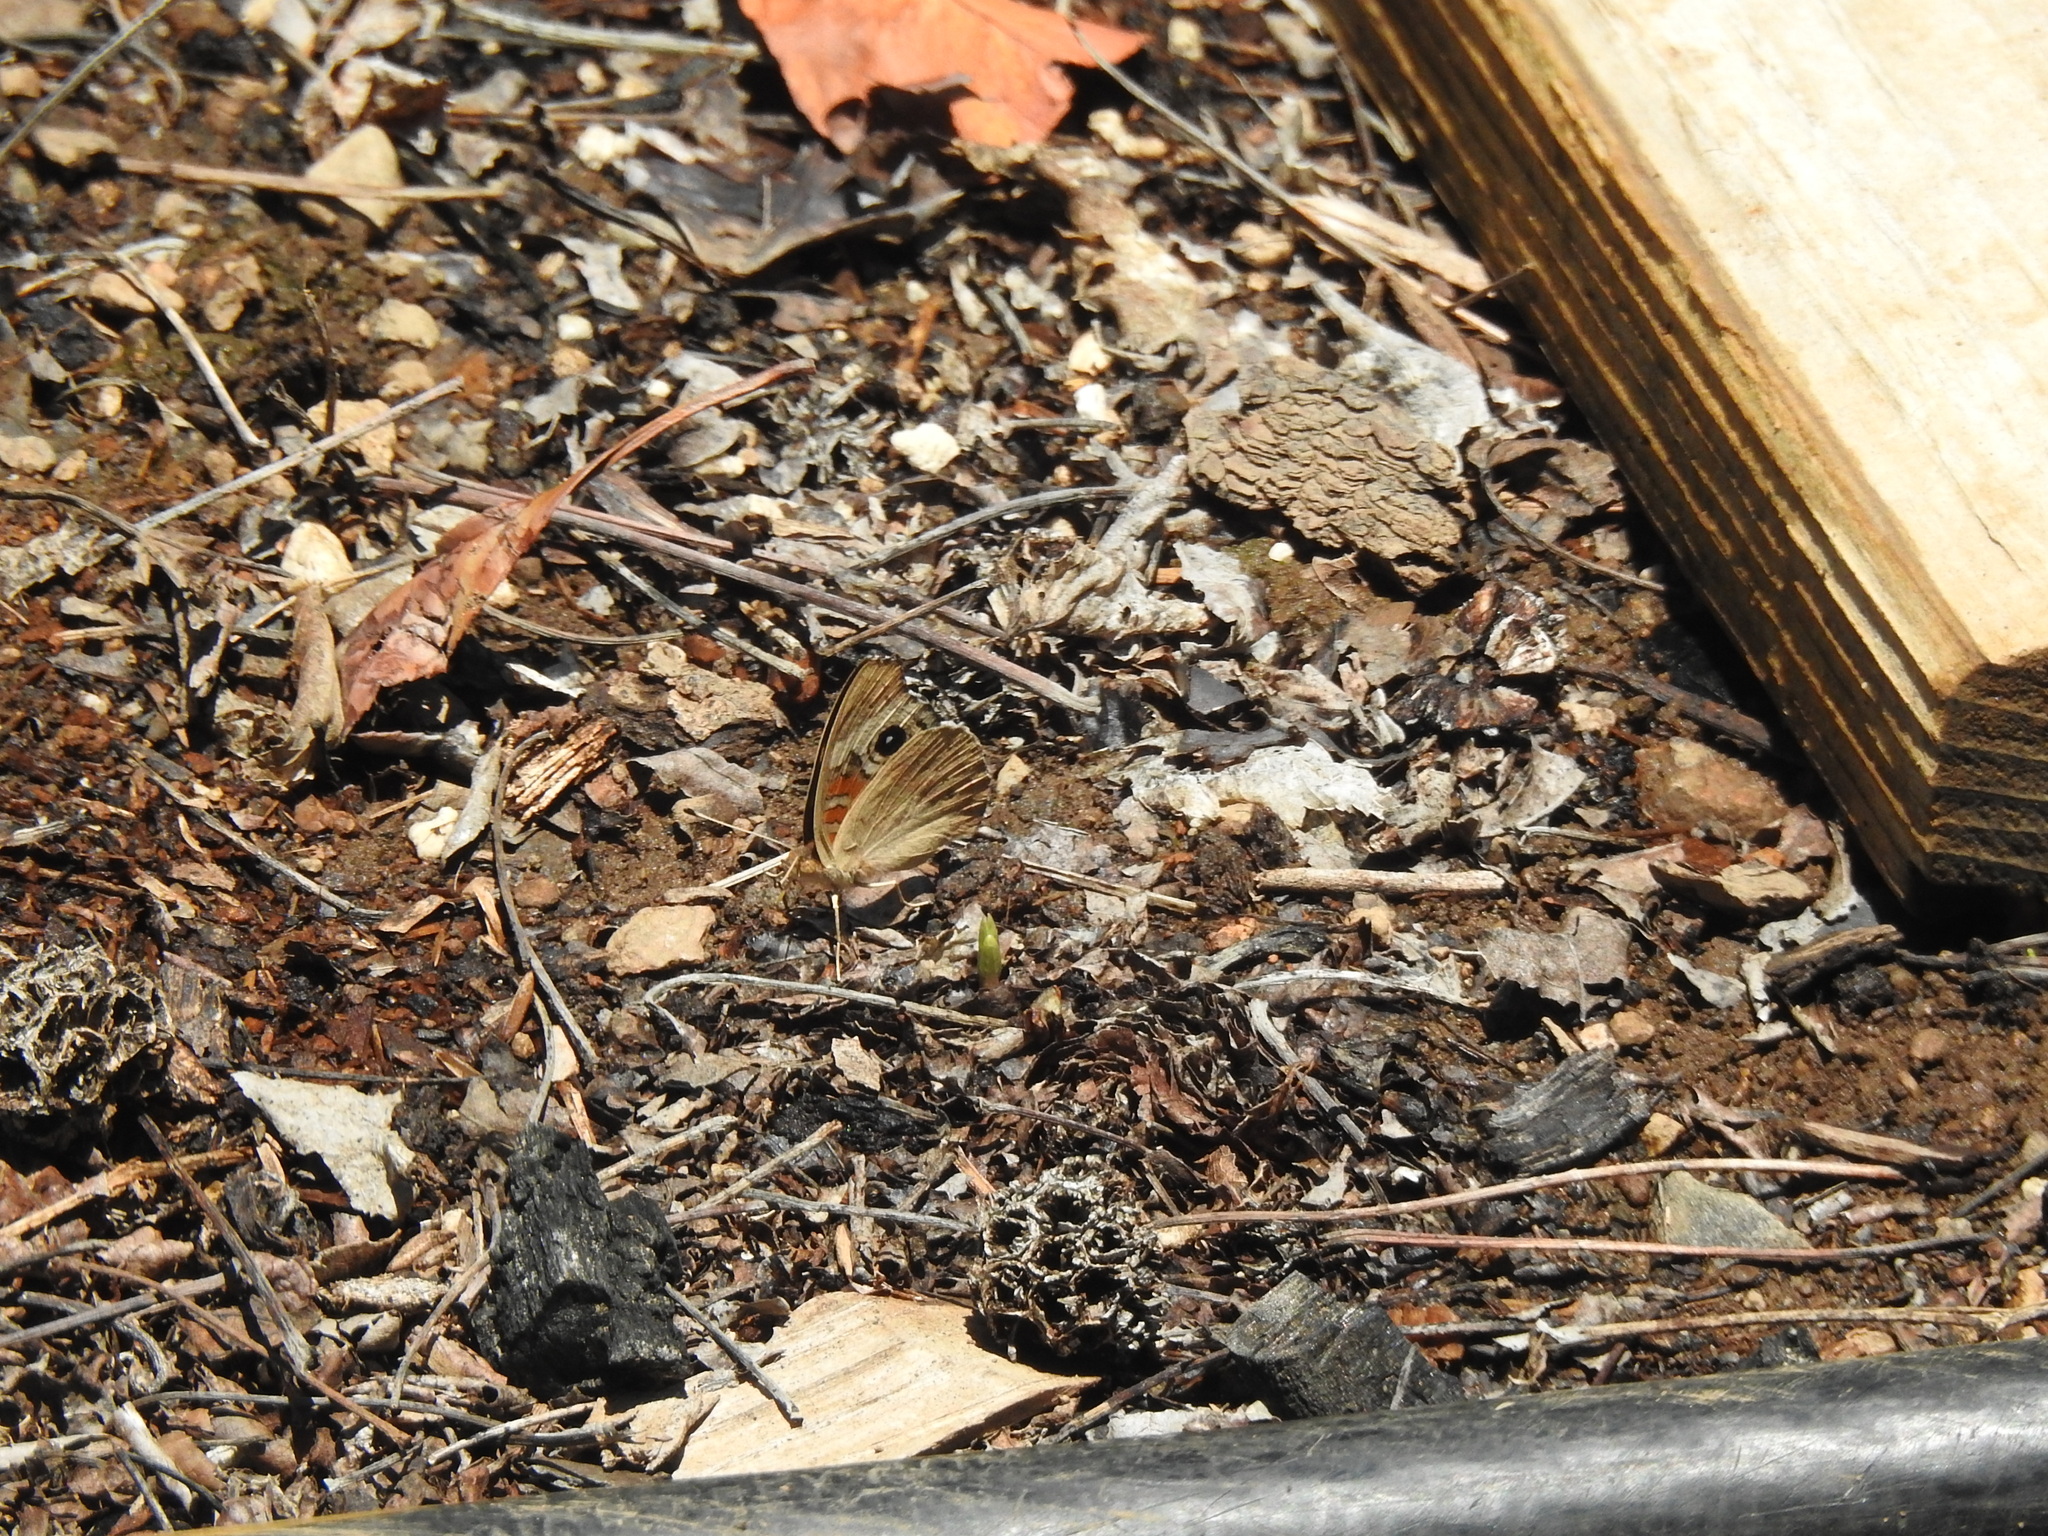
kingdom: Animalia
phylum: Arthropoda
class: Insecta
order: Lepidoptera
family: Nymphalidae
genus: Junonia
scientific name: Junonia grisea
